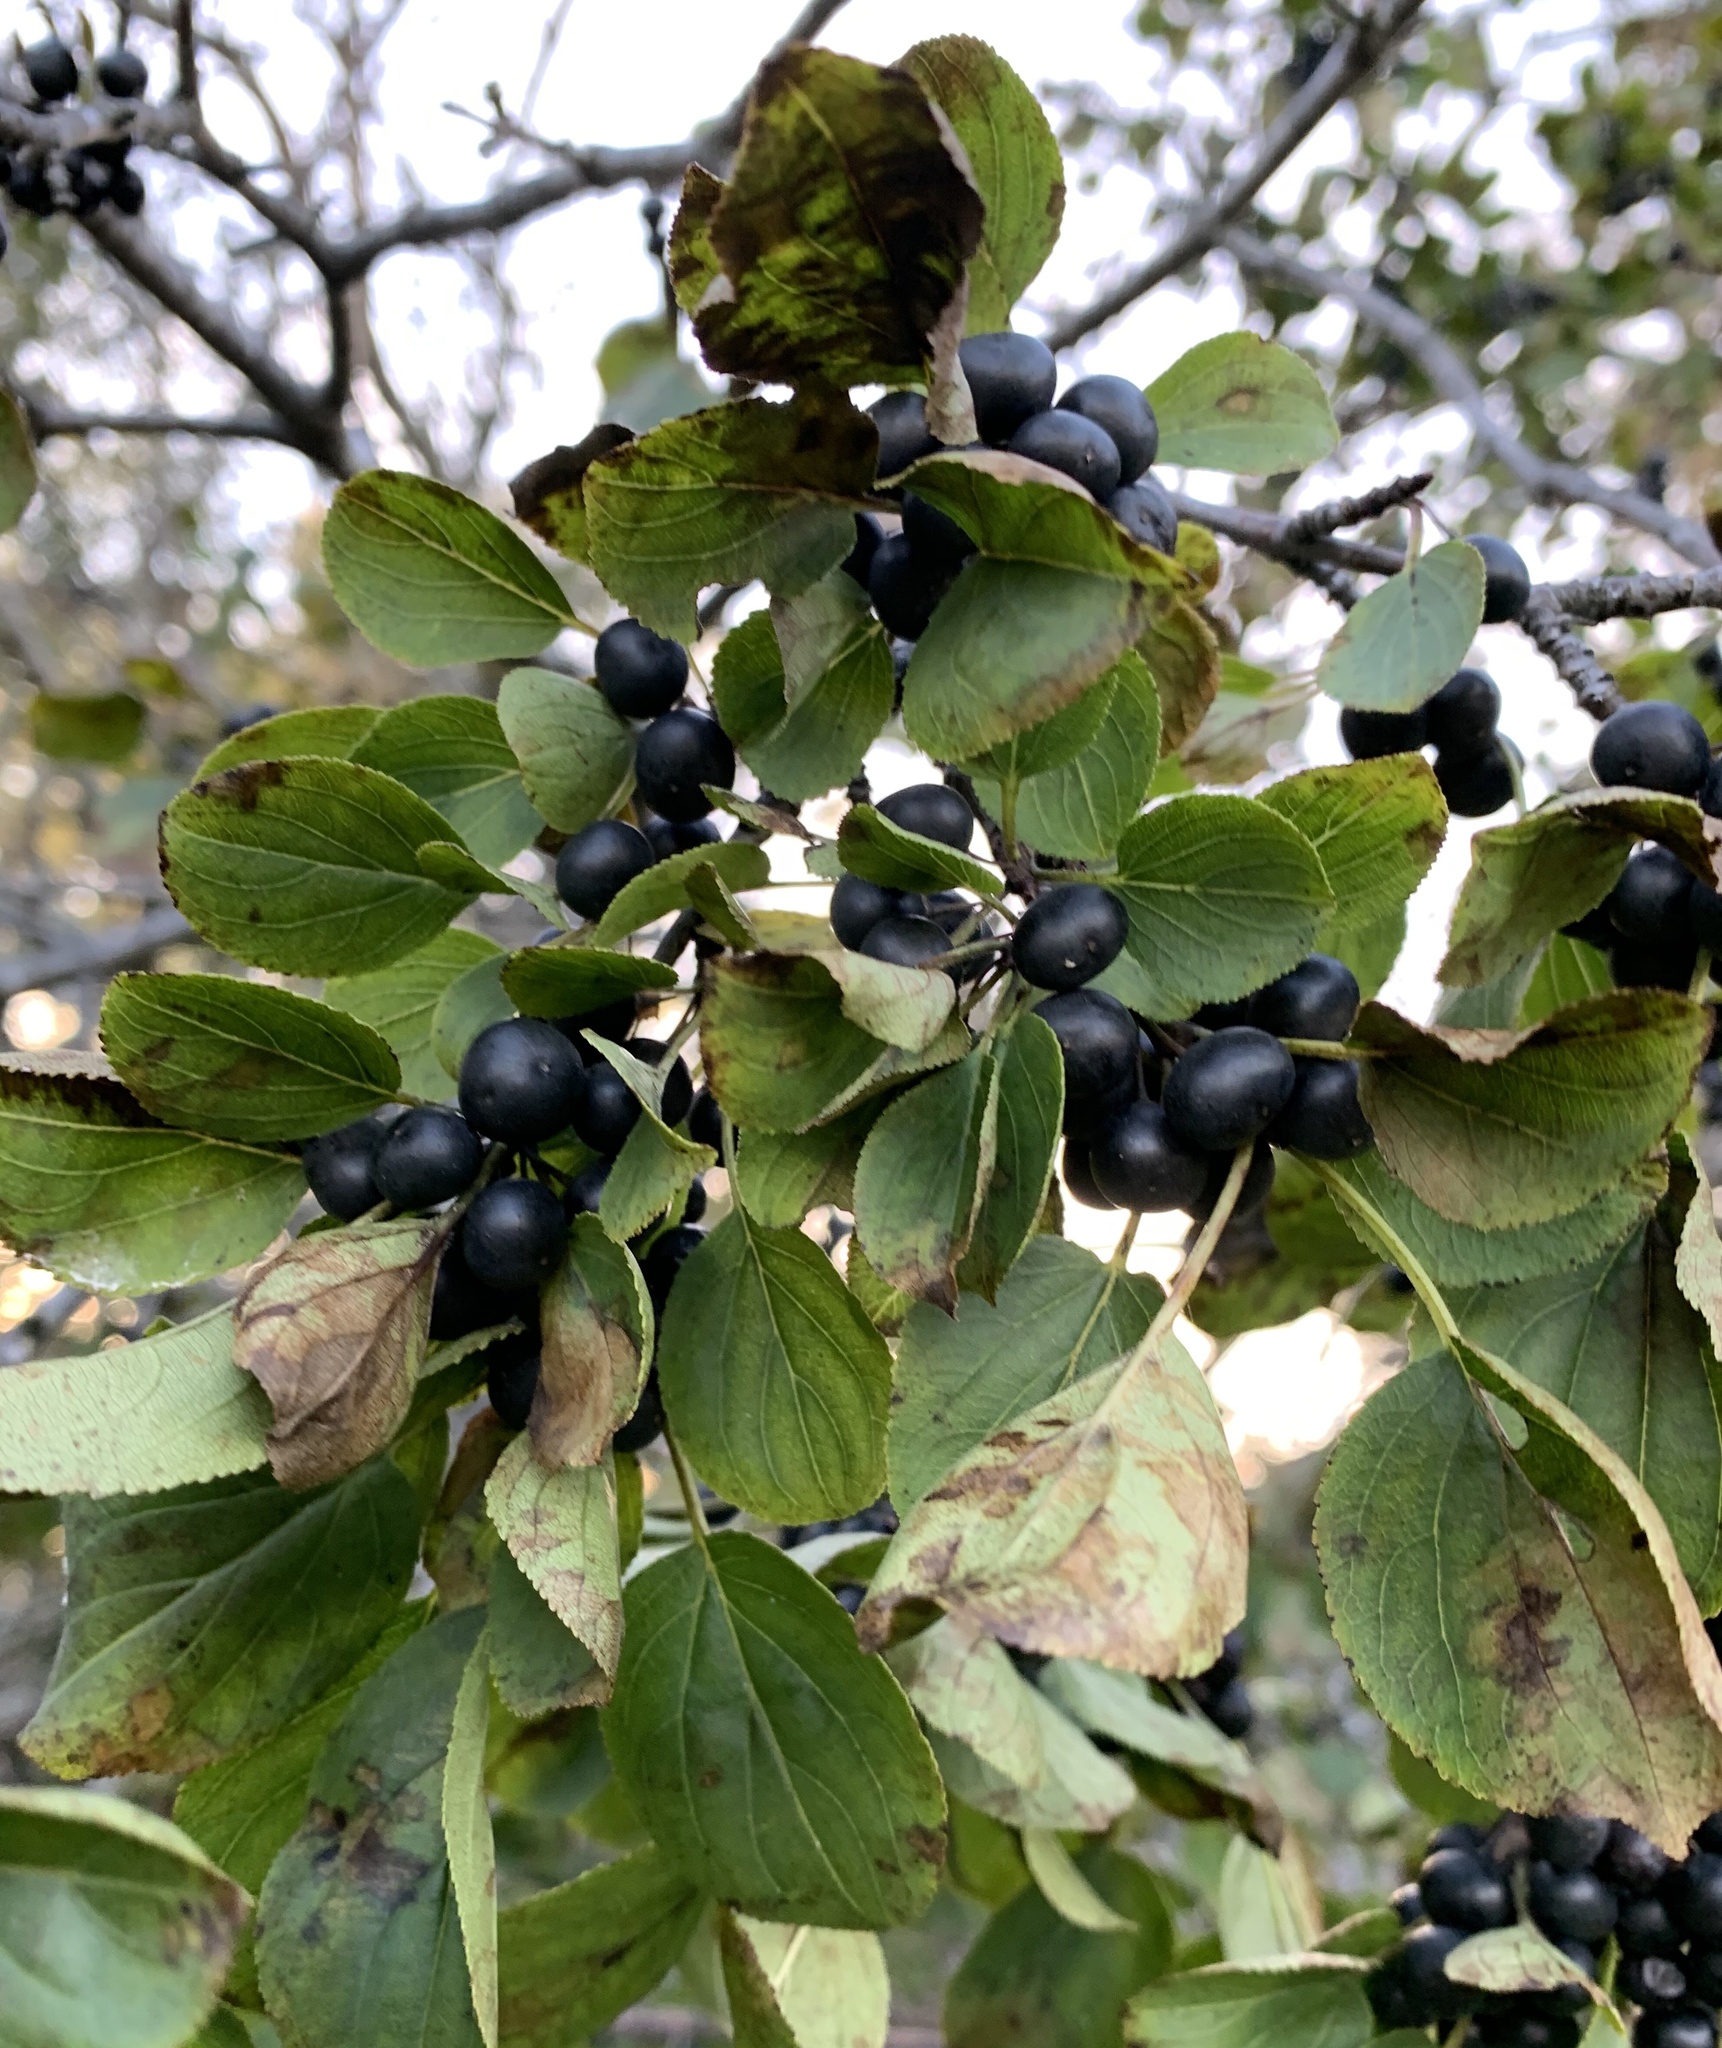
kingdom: Plantae
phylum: Tracheophyta
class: Magnoliopsida
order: Rosales
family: Rhamnaceae
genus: Rhamnus
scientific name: Rhamnus cathartica
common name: Common buckthorn
